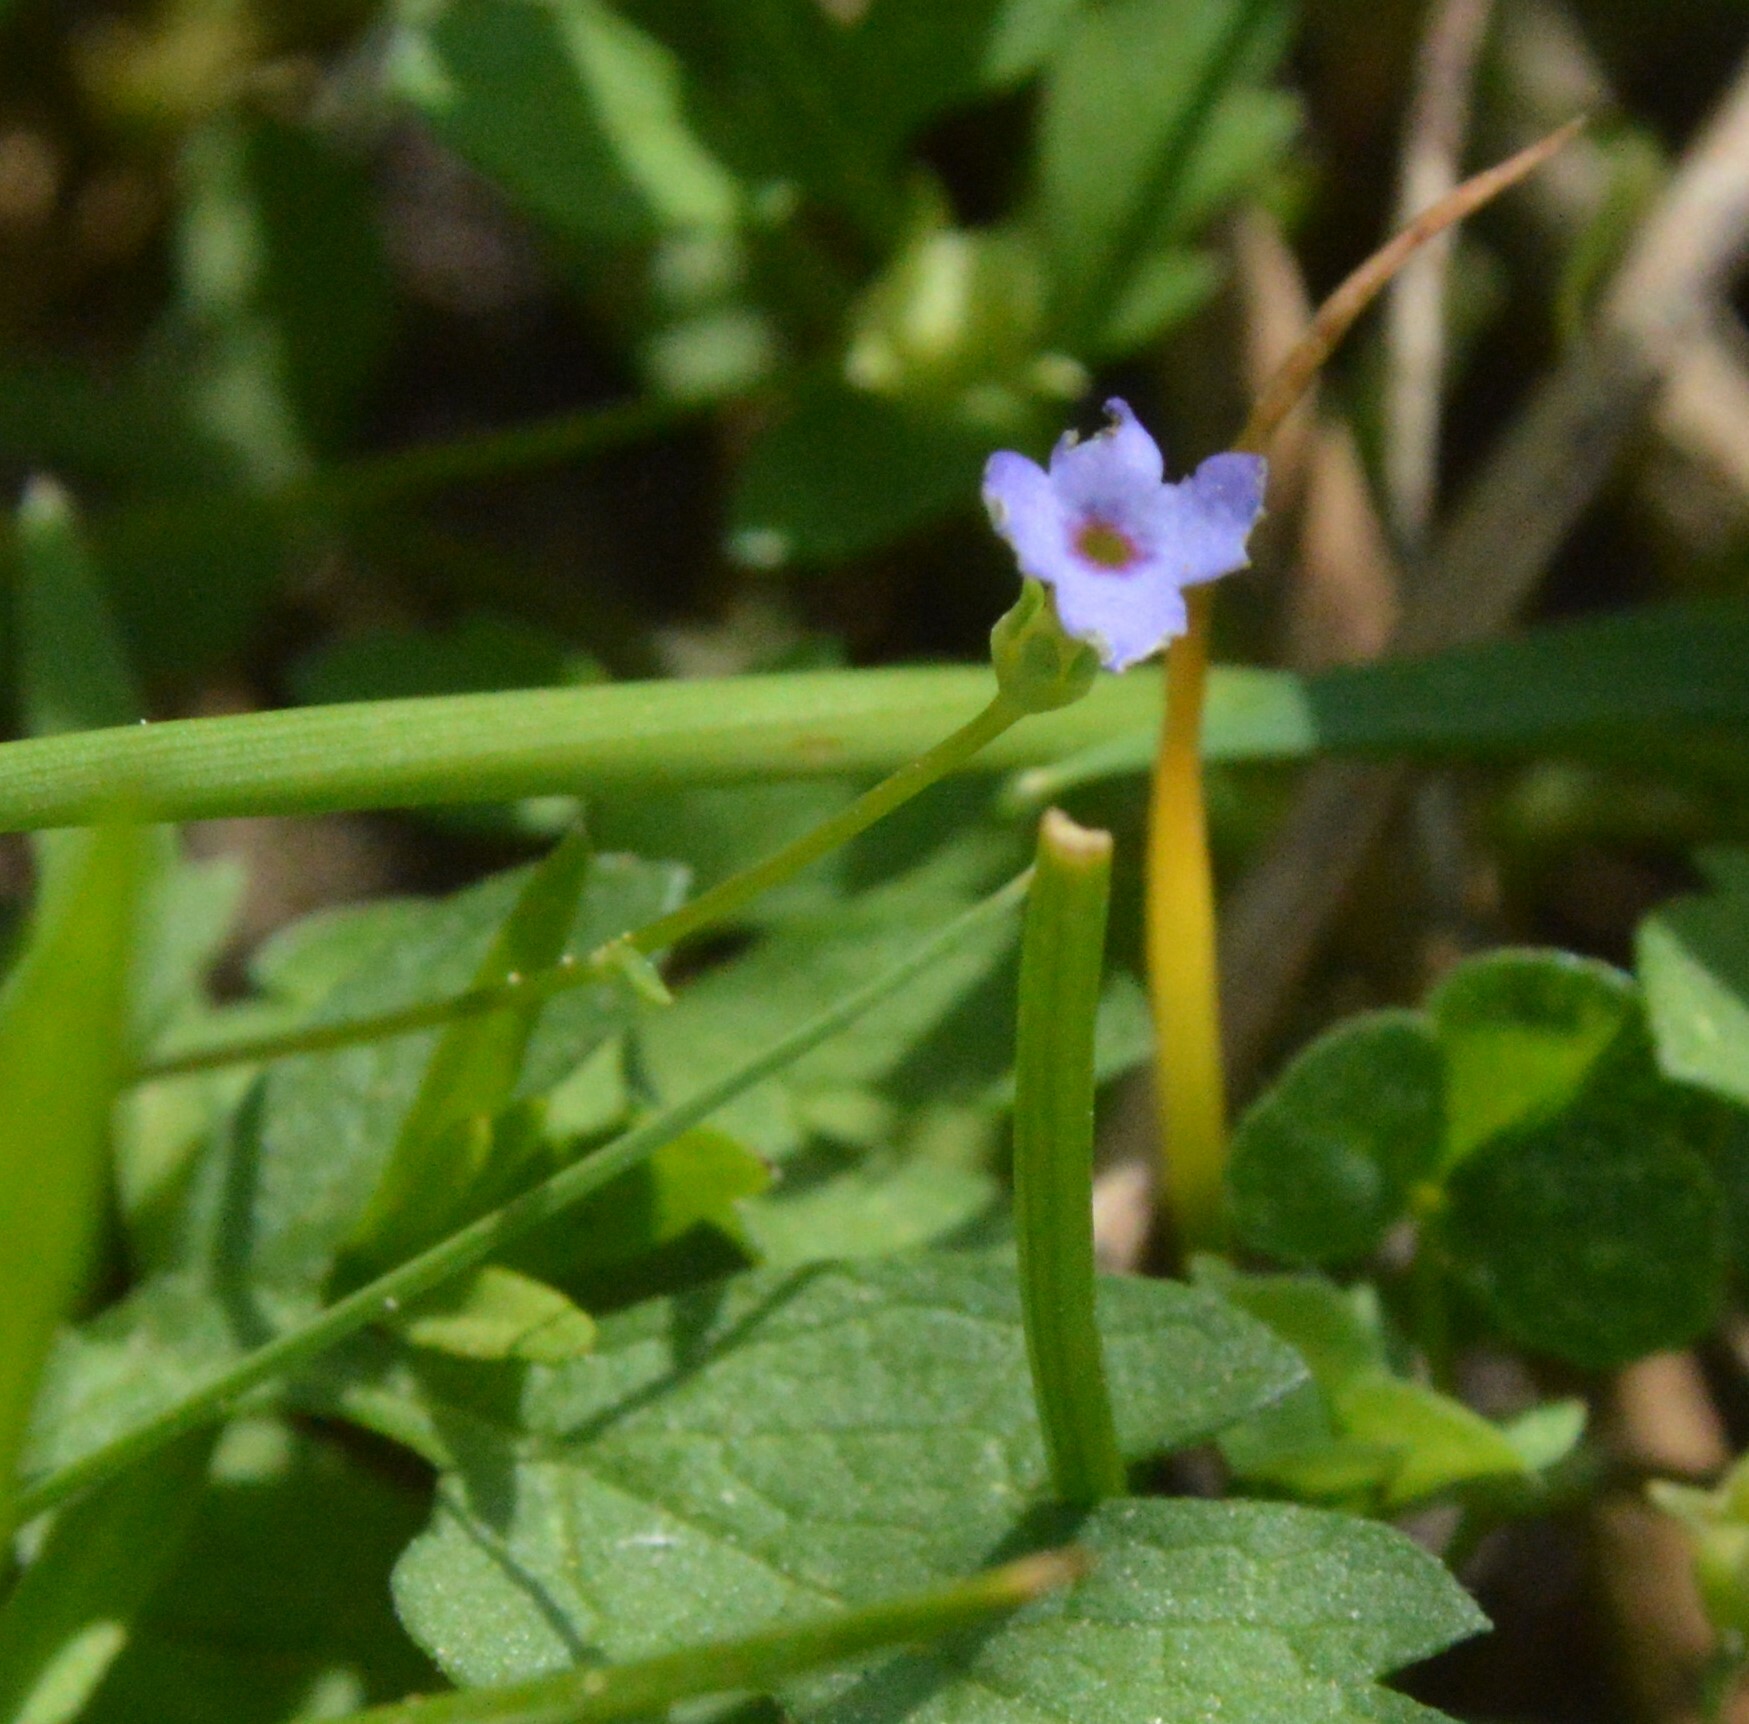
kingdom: Plantae
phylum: Tracheophyta
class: Magnoliopsida
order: Gentianales
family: Rubiaceae
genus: Houstonia
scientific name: Houstonia pusilla
